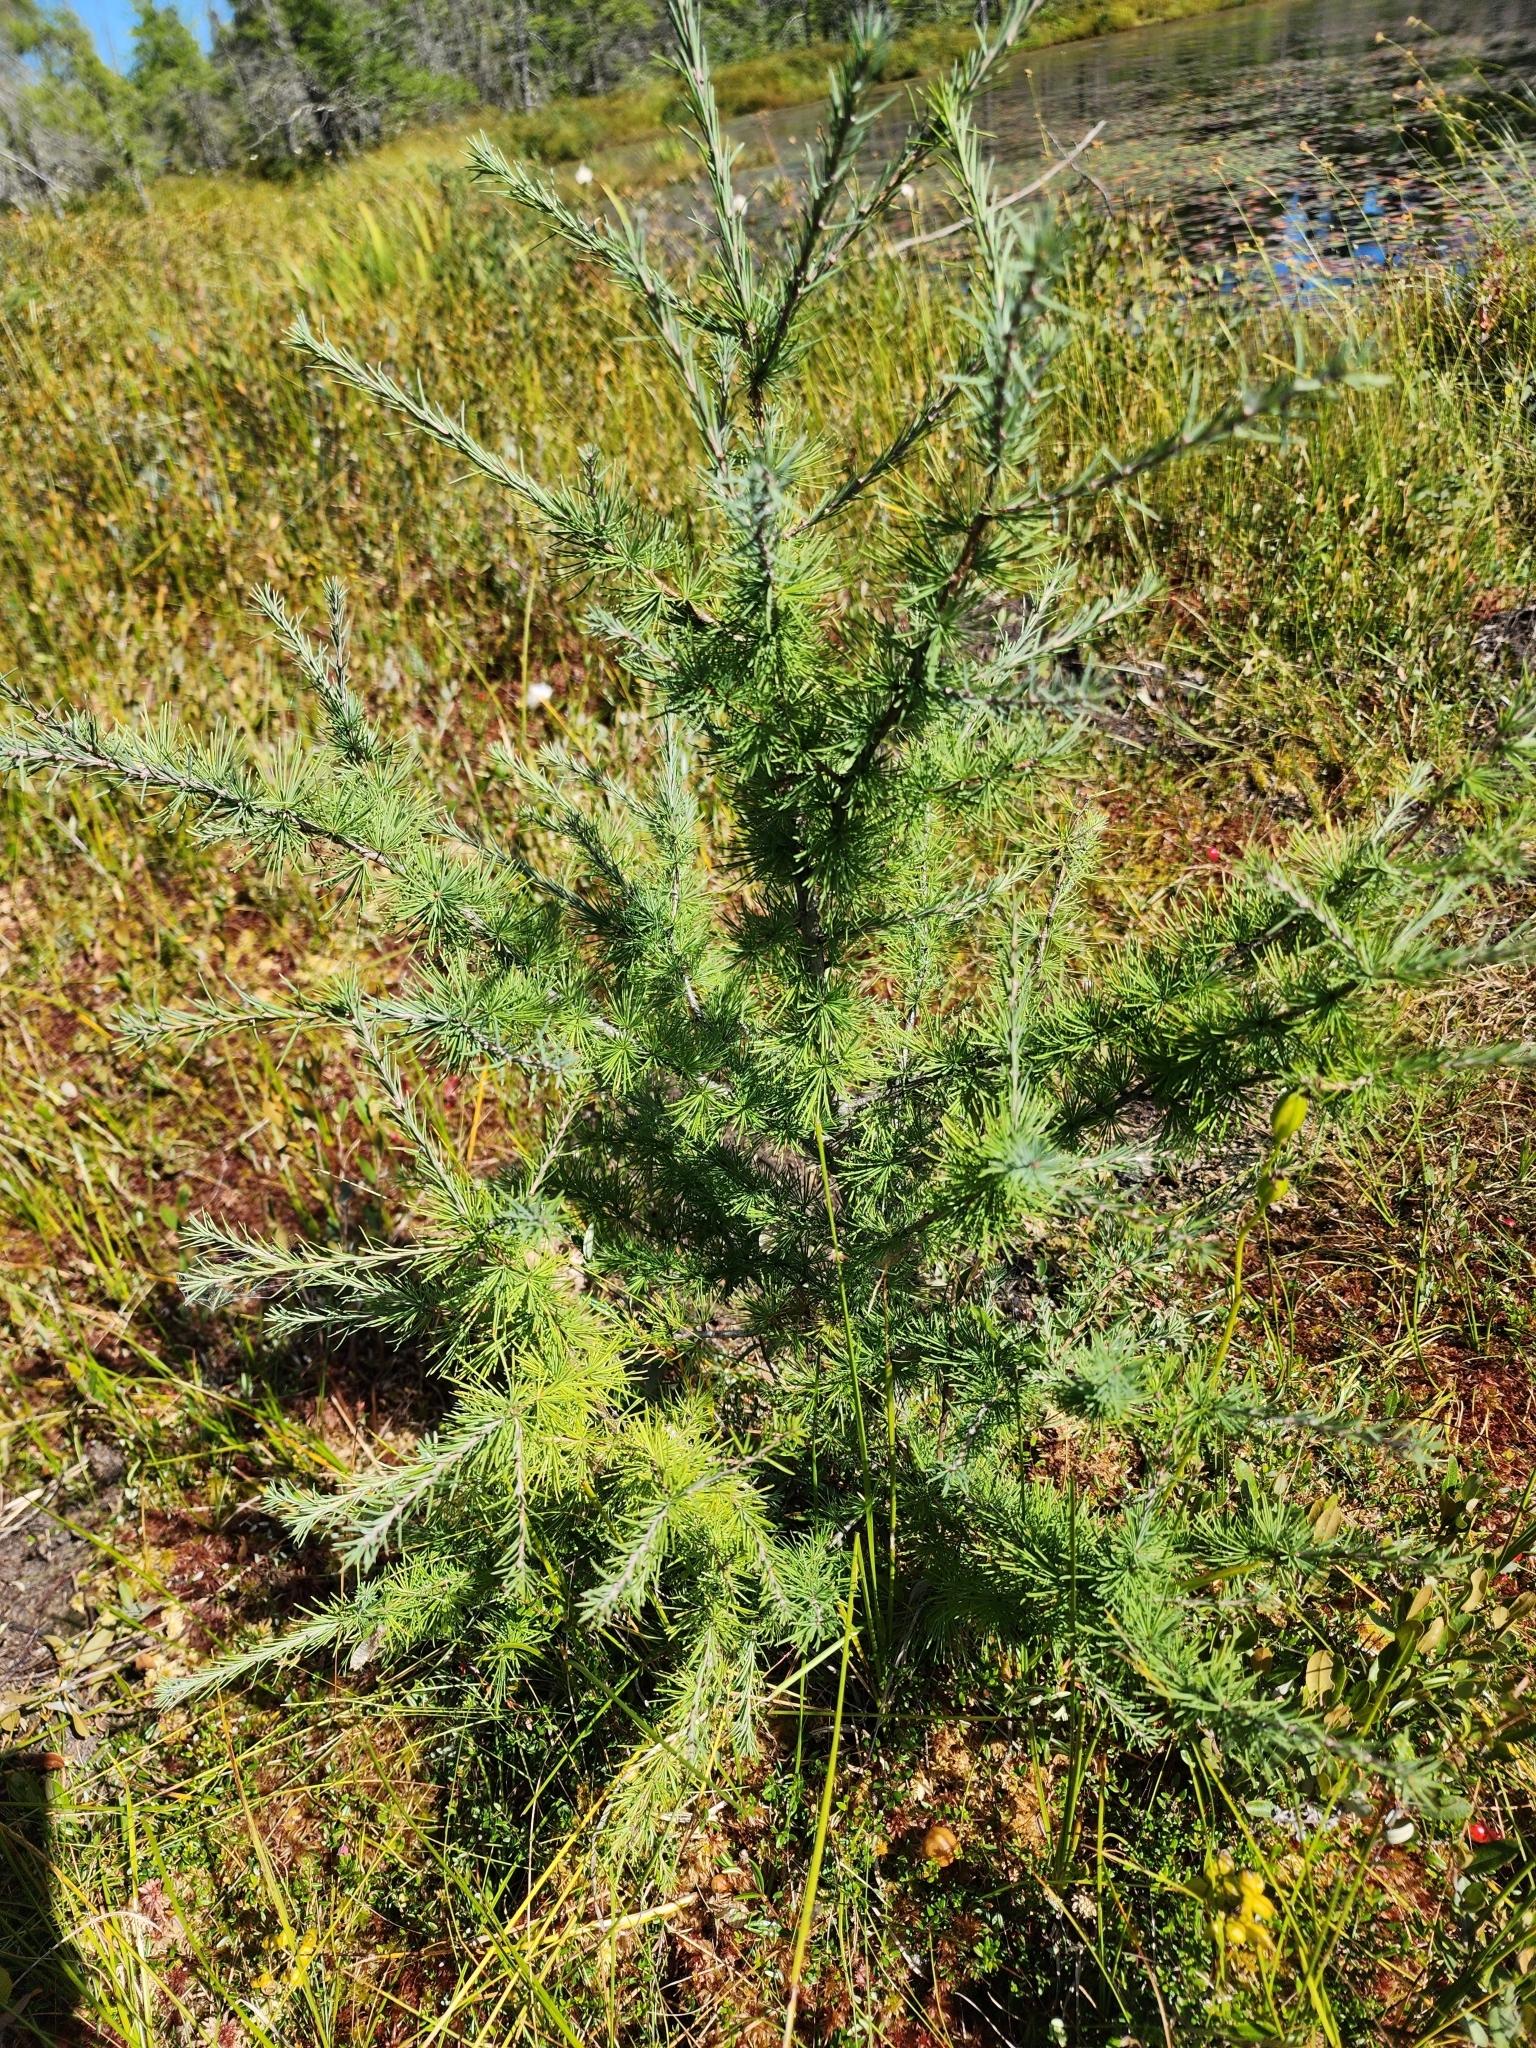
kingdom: Plantae
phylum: Tracheophyta
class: Pinopsida
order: Pinales
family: Pinaceae
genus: Larix
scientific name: Larix laricina
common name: American larch
